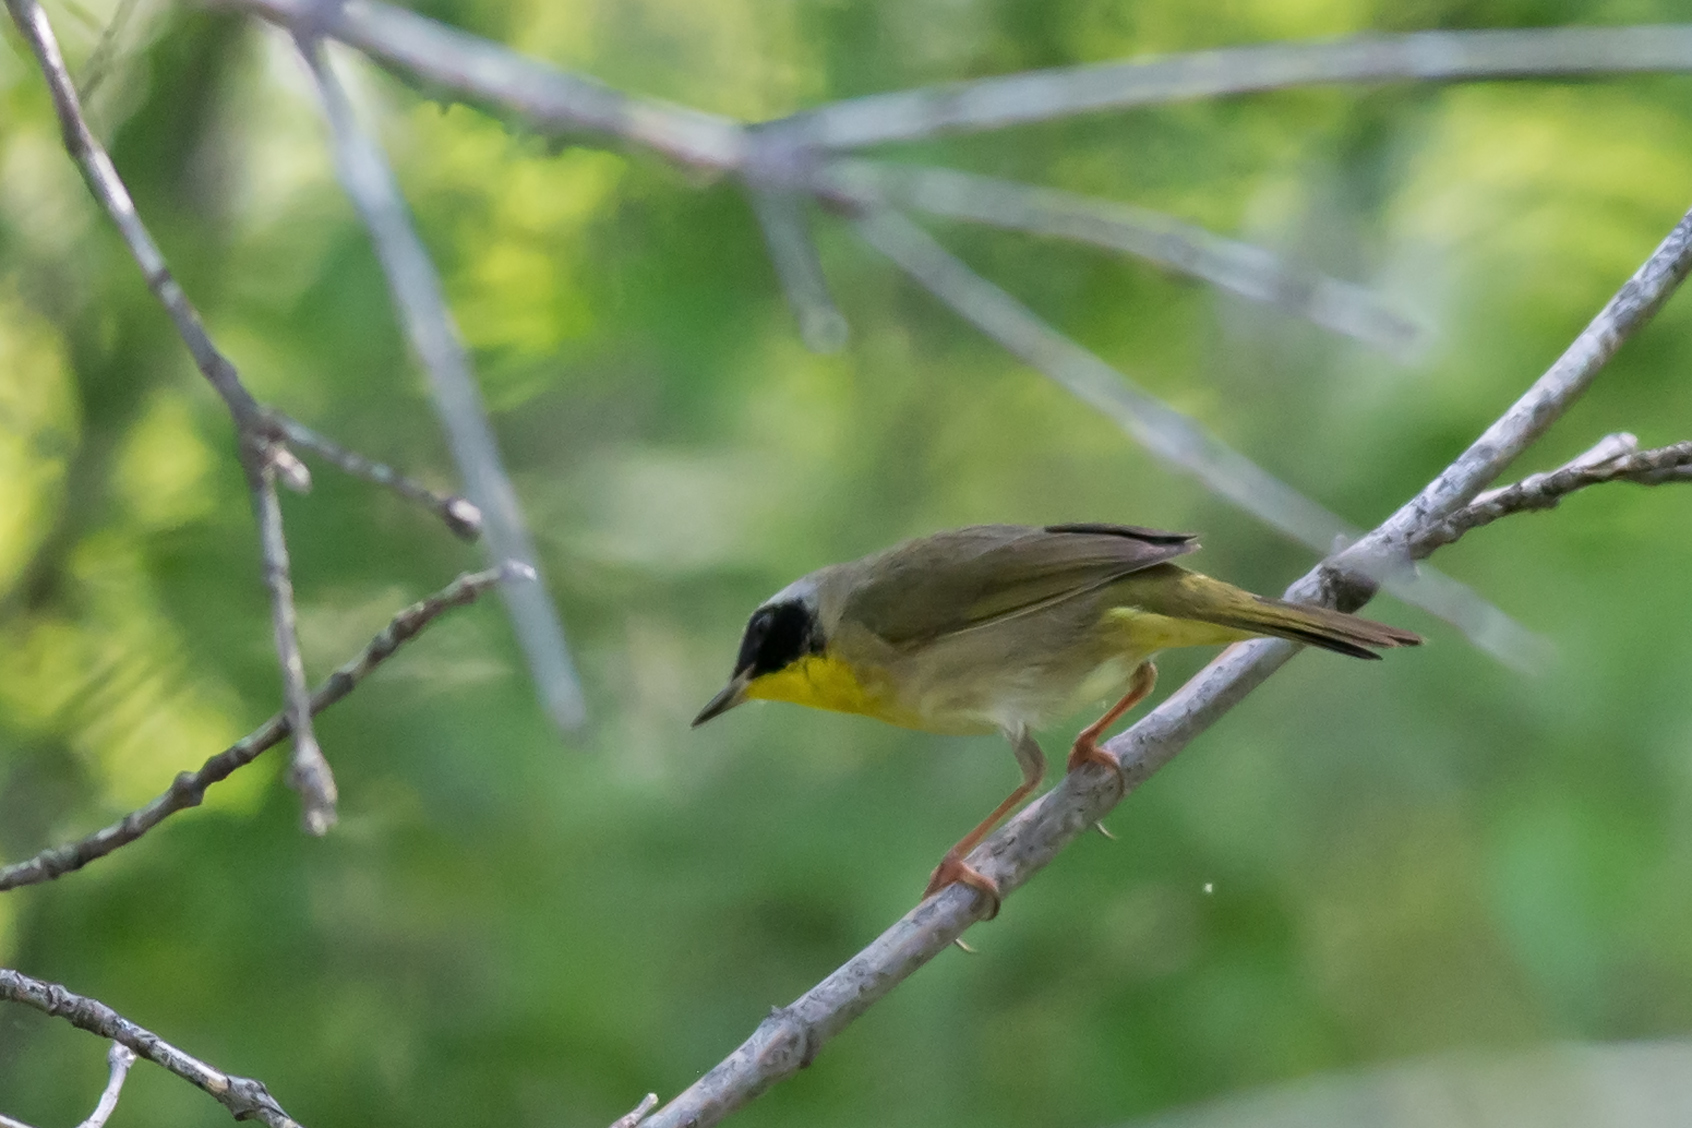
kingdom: Animalia
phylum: Chordata
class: Aves
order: Passeriformes
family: Parulidae
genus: Geothlypis
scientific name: Geothlypis trichas
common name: Common yellowthroat
